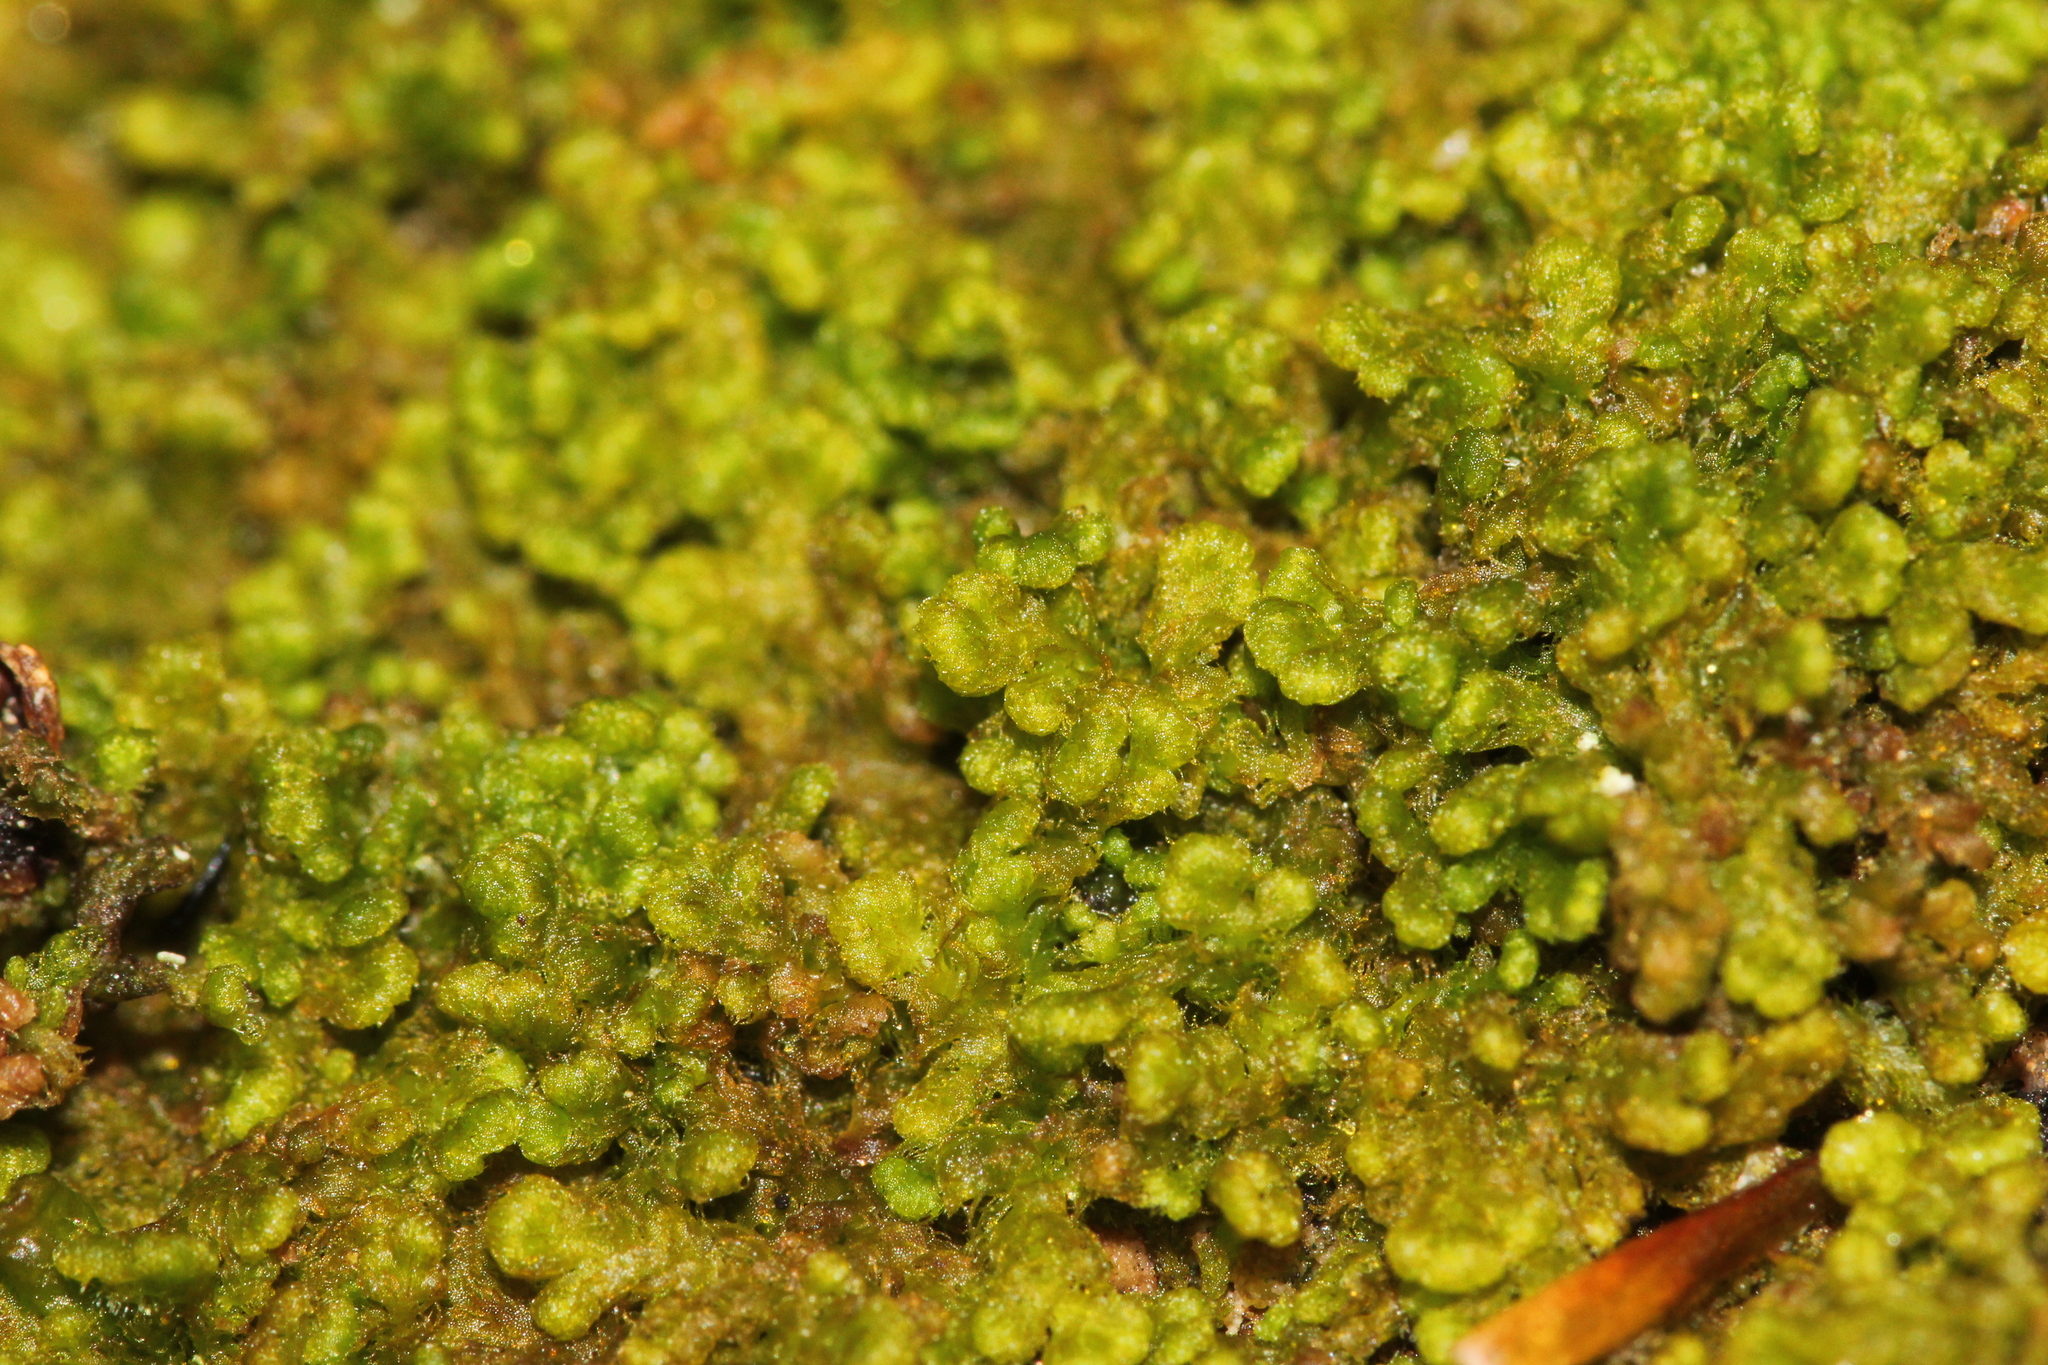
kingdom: Plantae
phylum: Marchantiophyta
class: Jungermanniopsida
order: Ptilidiales
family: Ptilidiaceae
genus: Ptilidium
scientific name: Ptilidium pulcherrimum
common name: Tree fringewort
